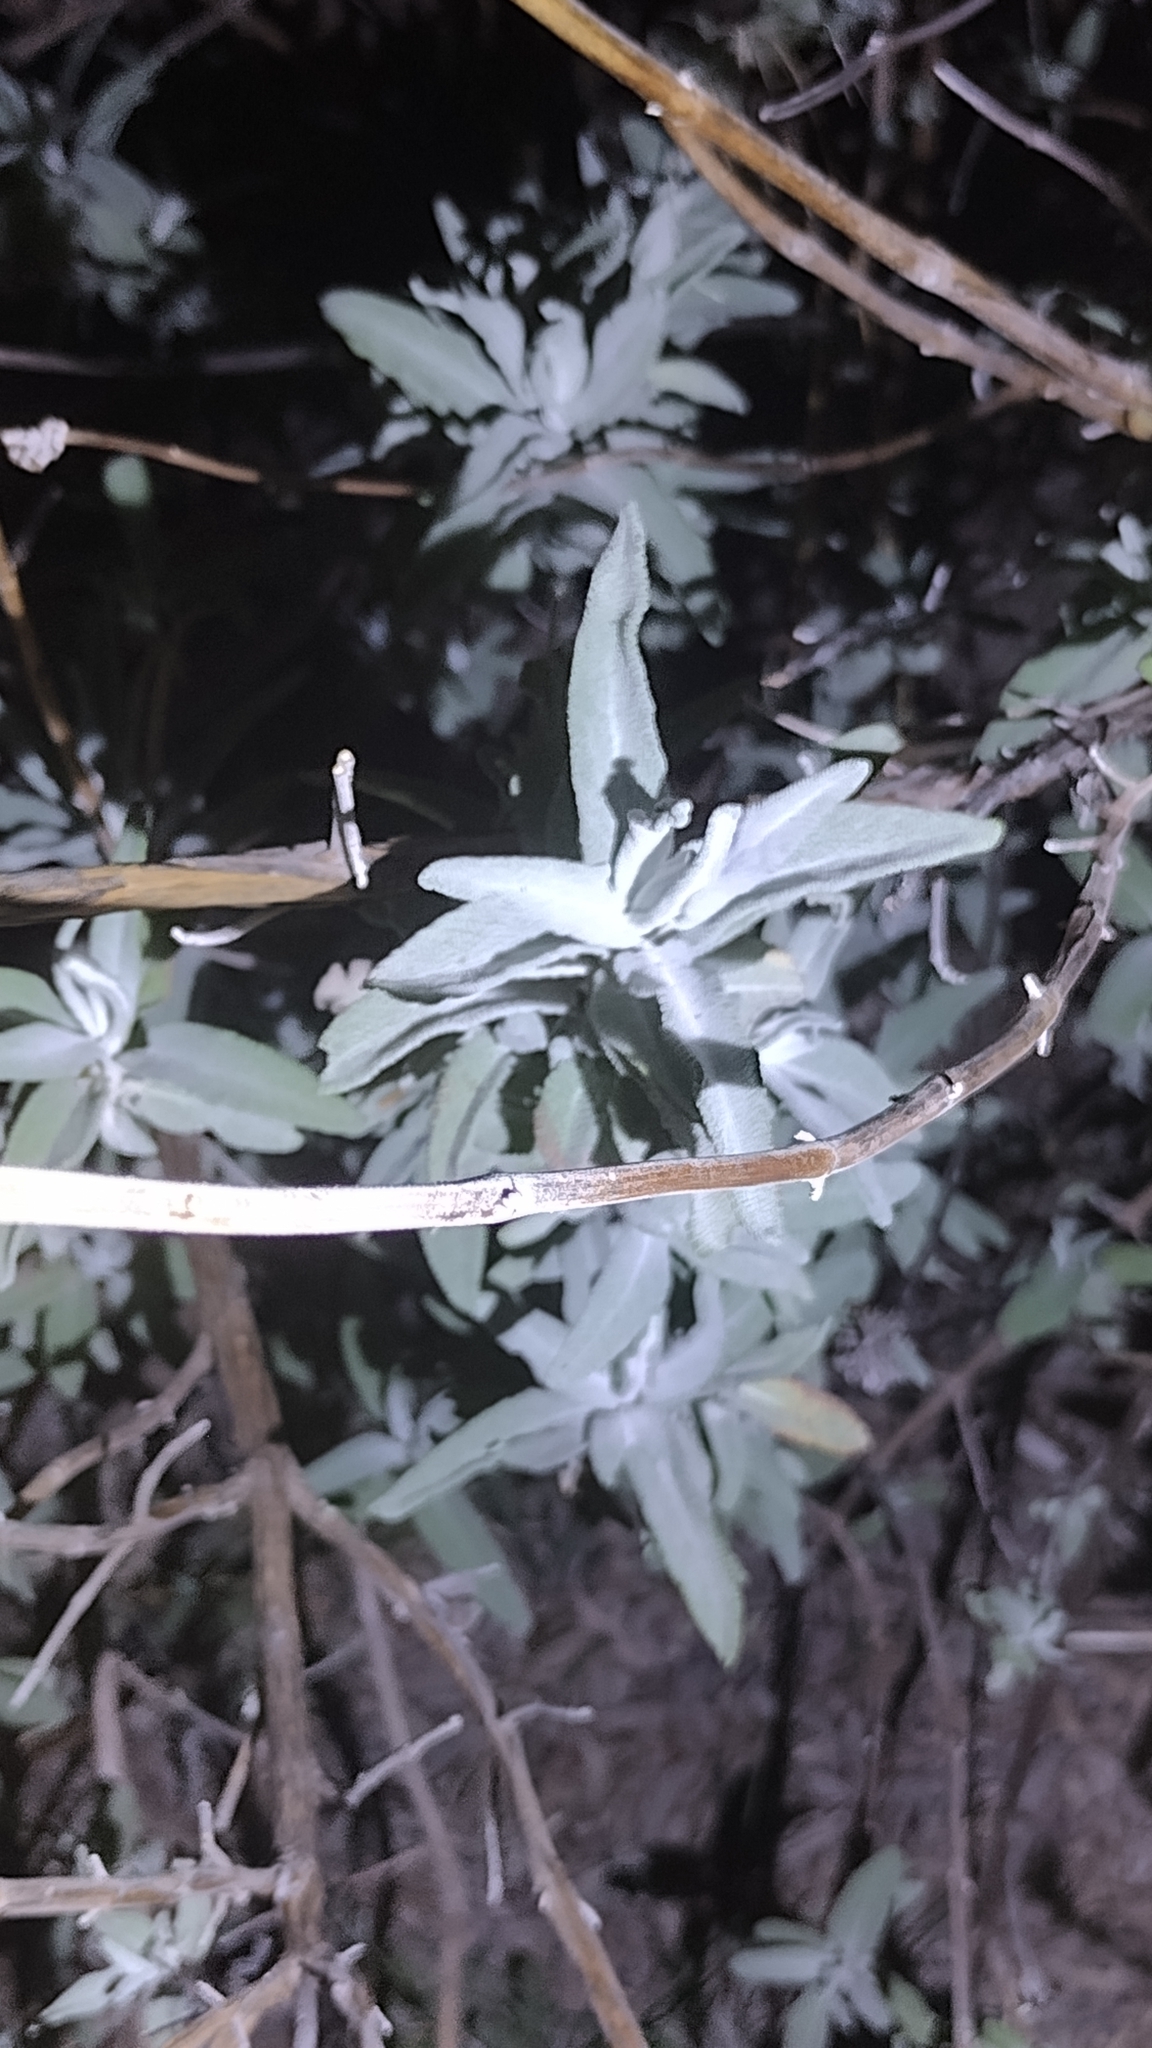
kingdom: Plantae
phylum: Tracheophyta
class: Magnoliopsida
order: Lamiales
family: Lamiaceae
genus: Salvia
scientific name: Salvia leucophylla
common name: Purple sage
